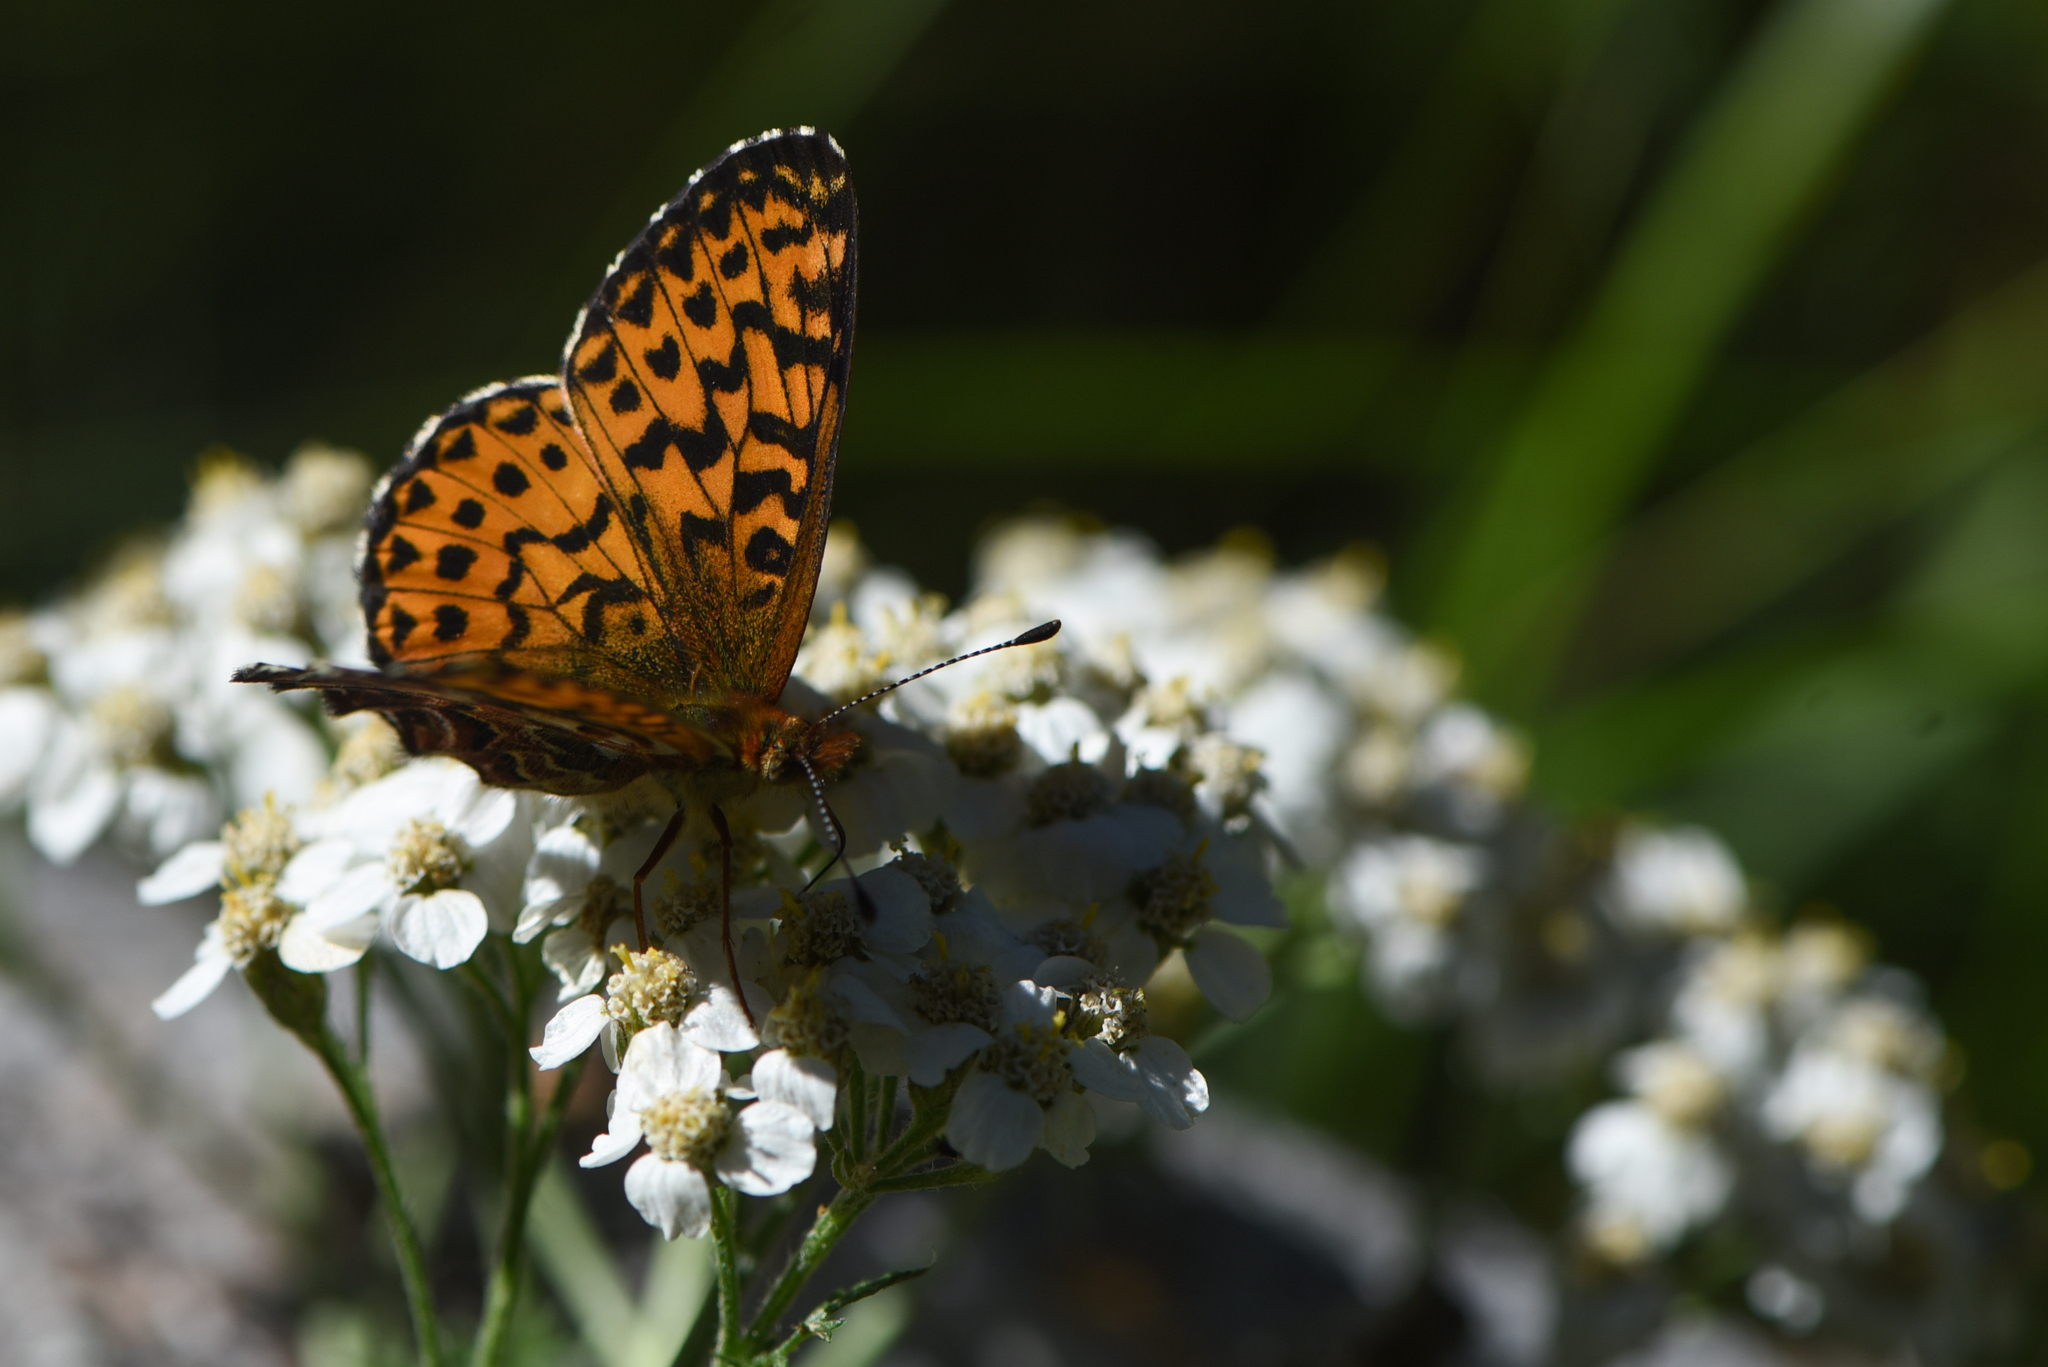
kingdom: Animalia
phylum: Arthropoda
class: Insecta
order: Lepidoptera
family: Nymphalidae
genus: Boloria
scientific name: Boloria chariclea
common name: Arctic fritillary
